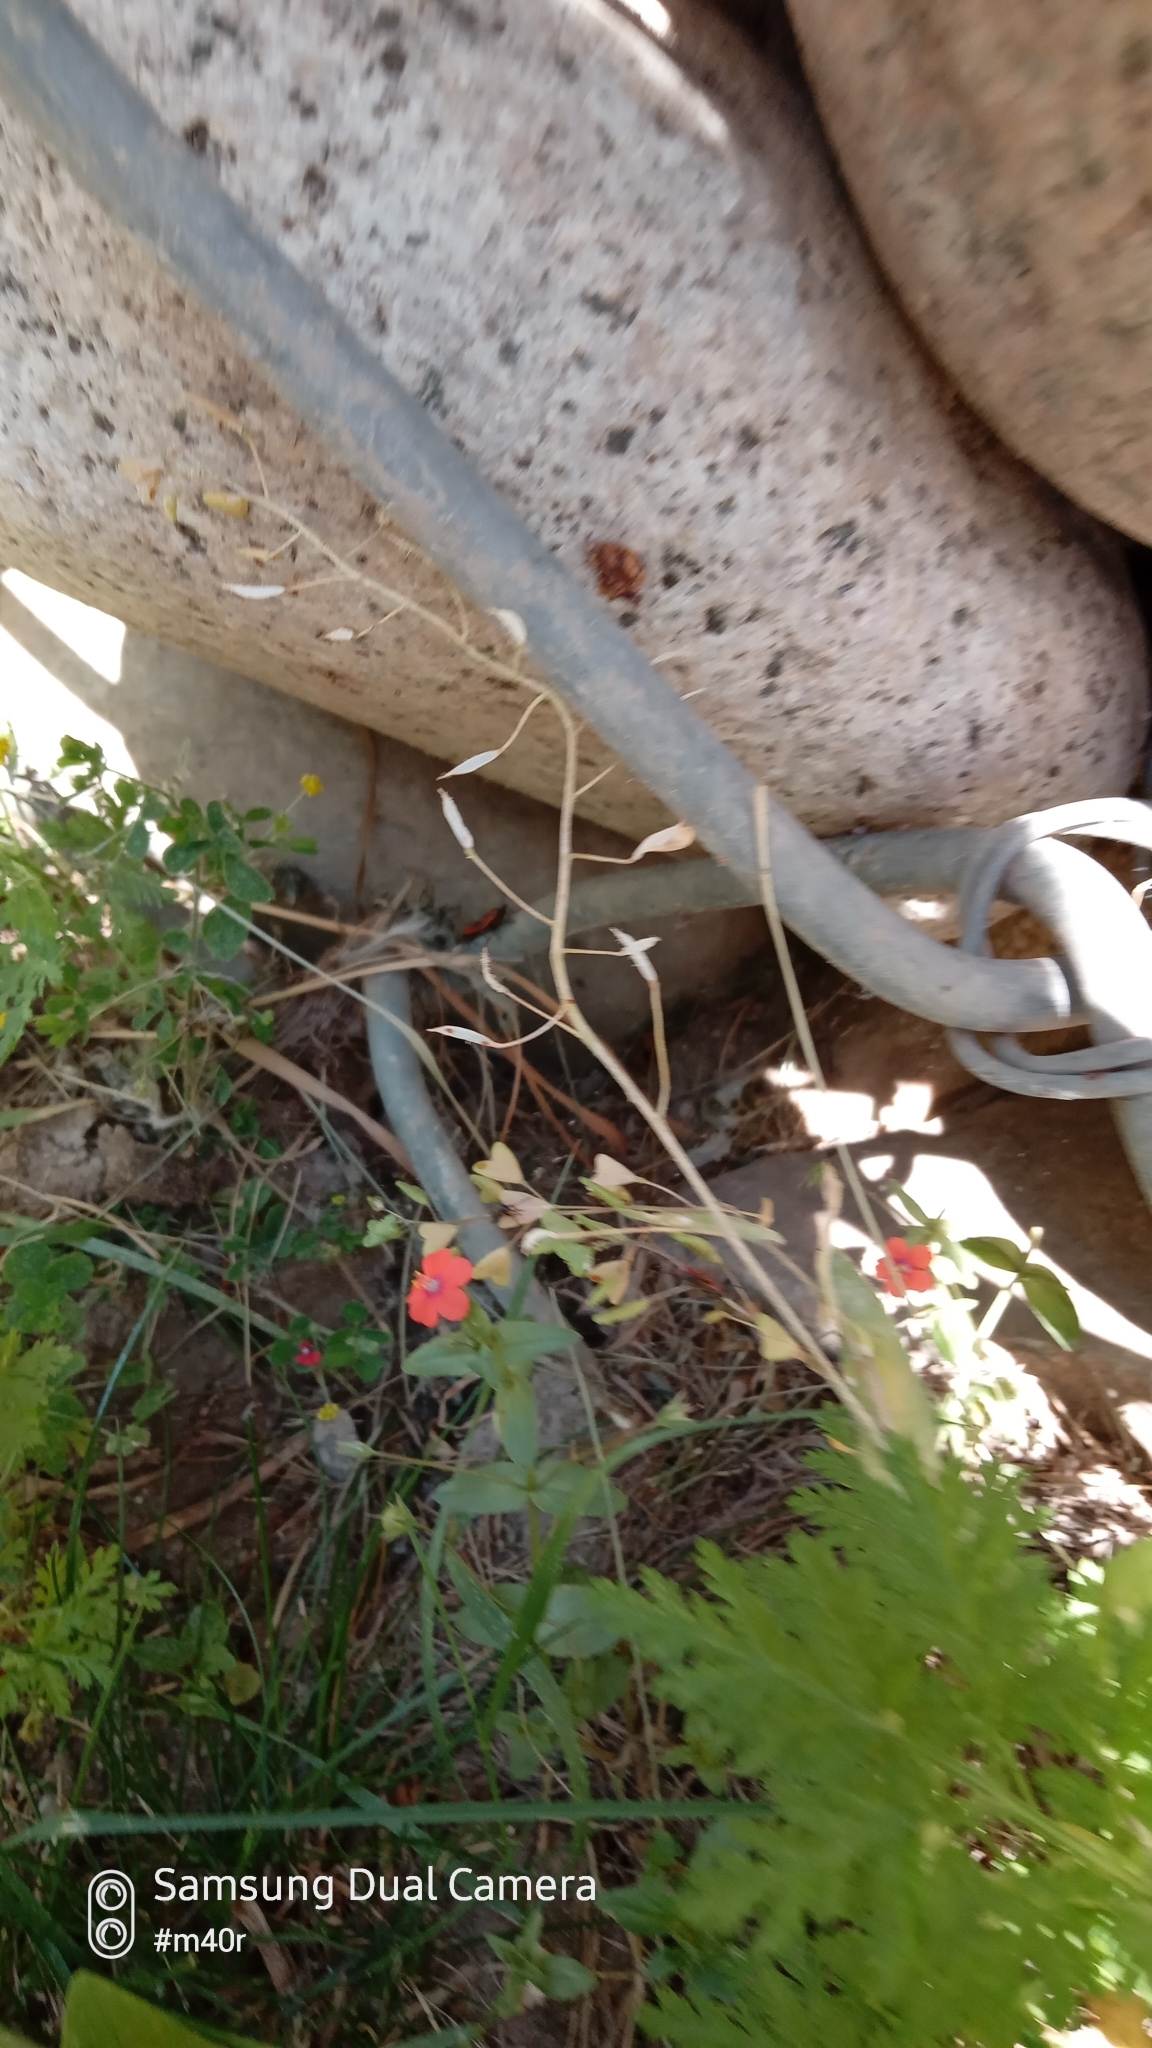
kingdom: Plantae
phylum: Tracheophyta
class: Magnoliopsida
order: Ericales
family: Primulaceae
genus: Lysimachia
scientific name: Lysimachia arvensis
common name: Scarlet pimpernel
